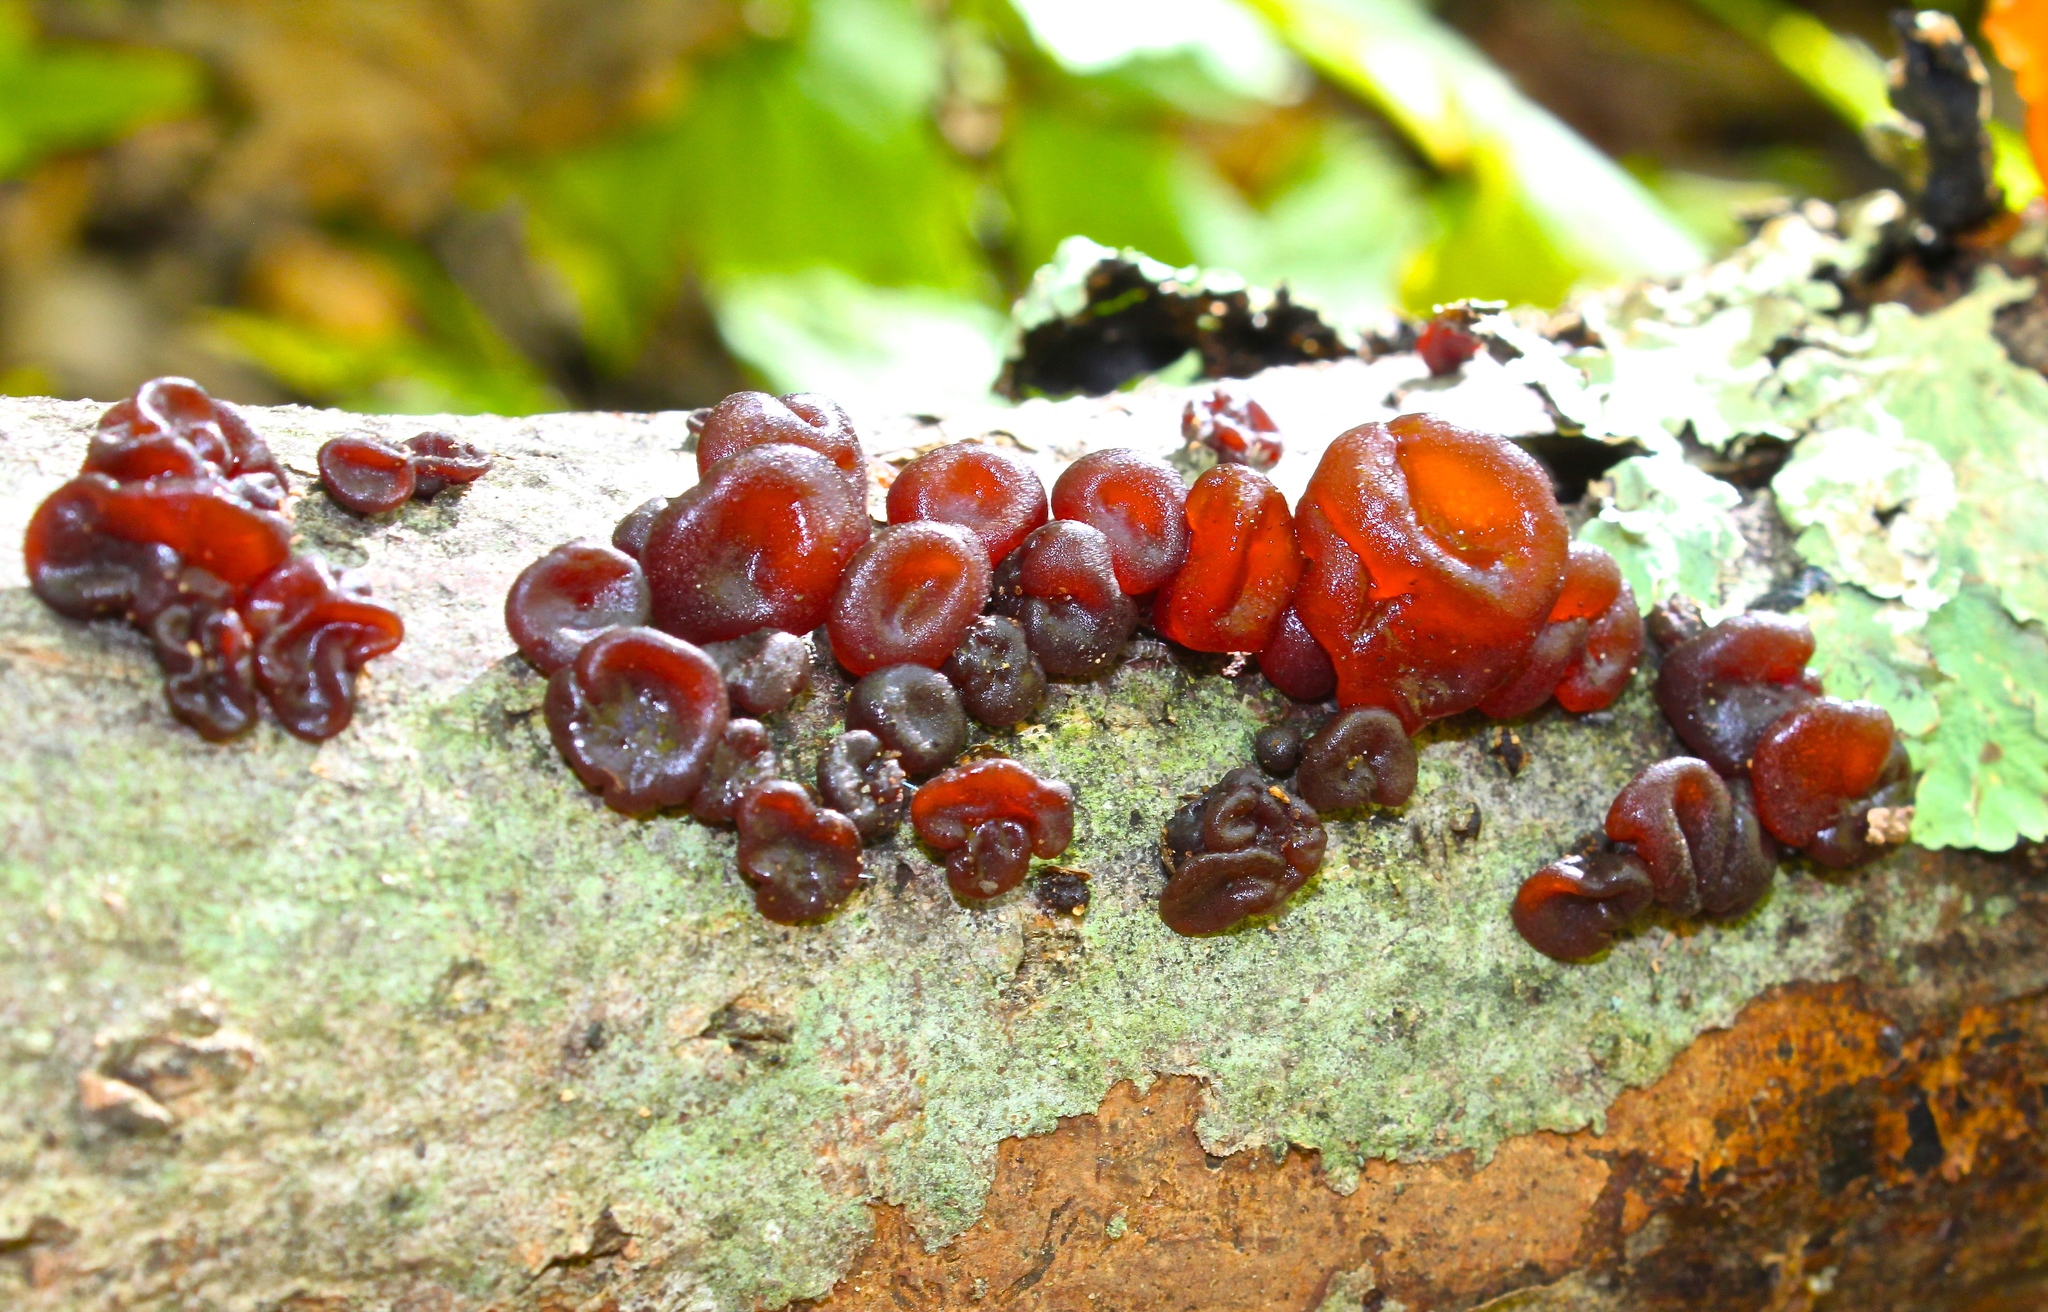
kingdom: Fungi
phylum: Basidiomycota
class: Agaricomycetes
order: Auriculariales
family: Auriculariaceae
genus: Exidia
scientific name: Exidia
